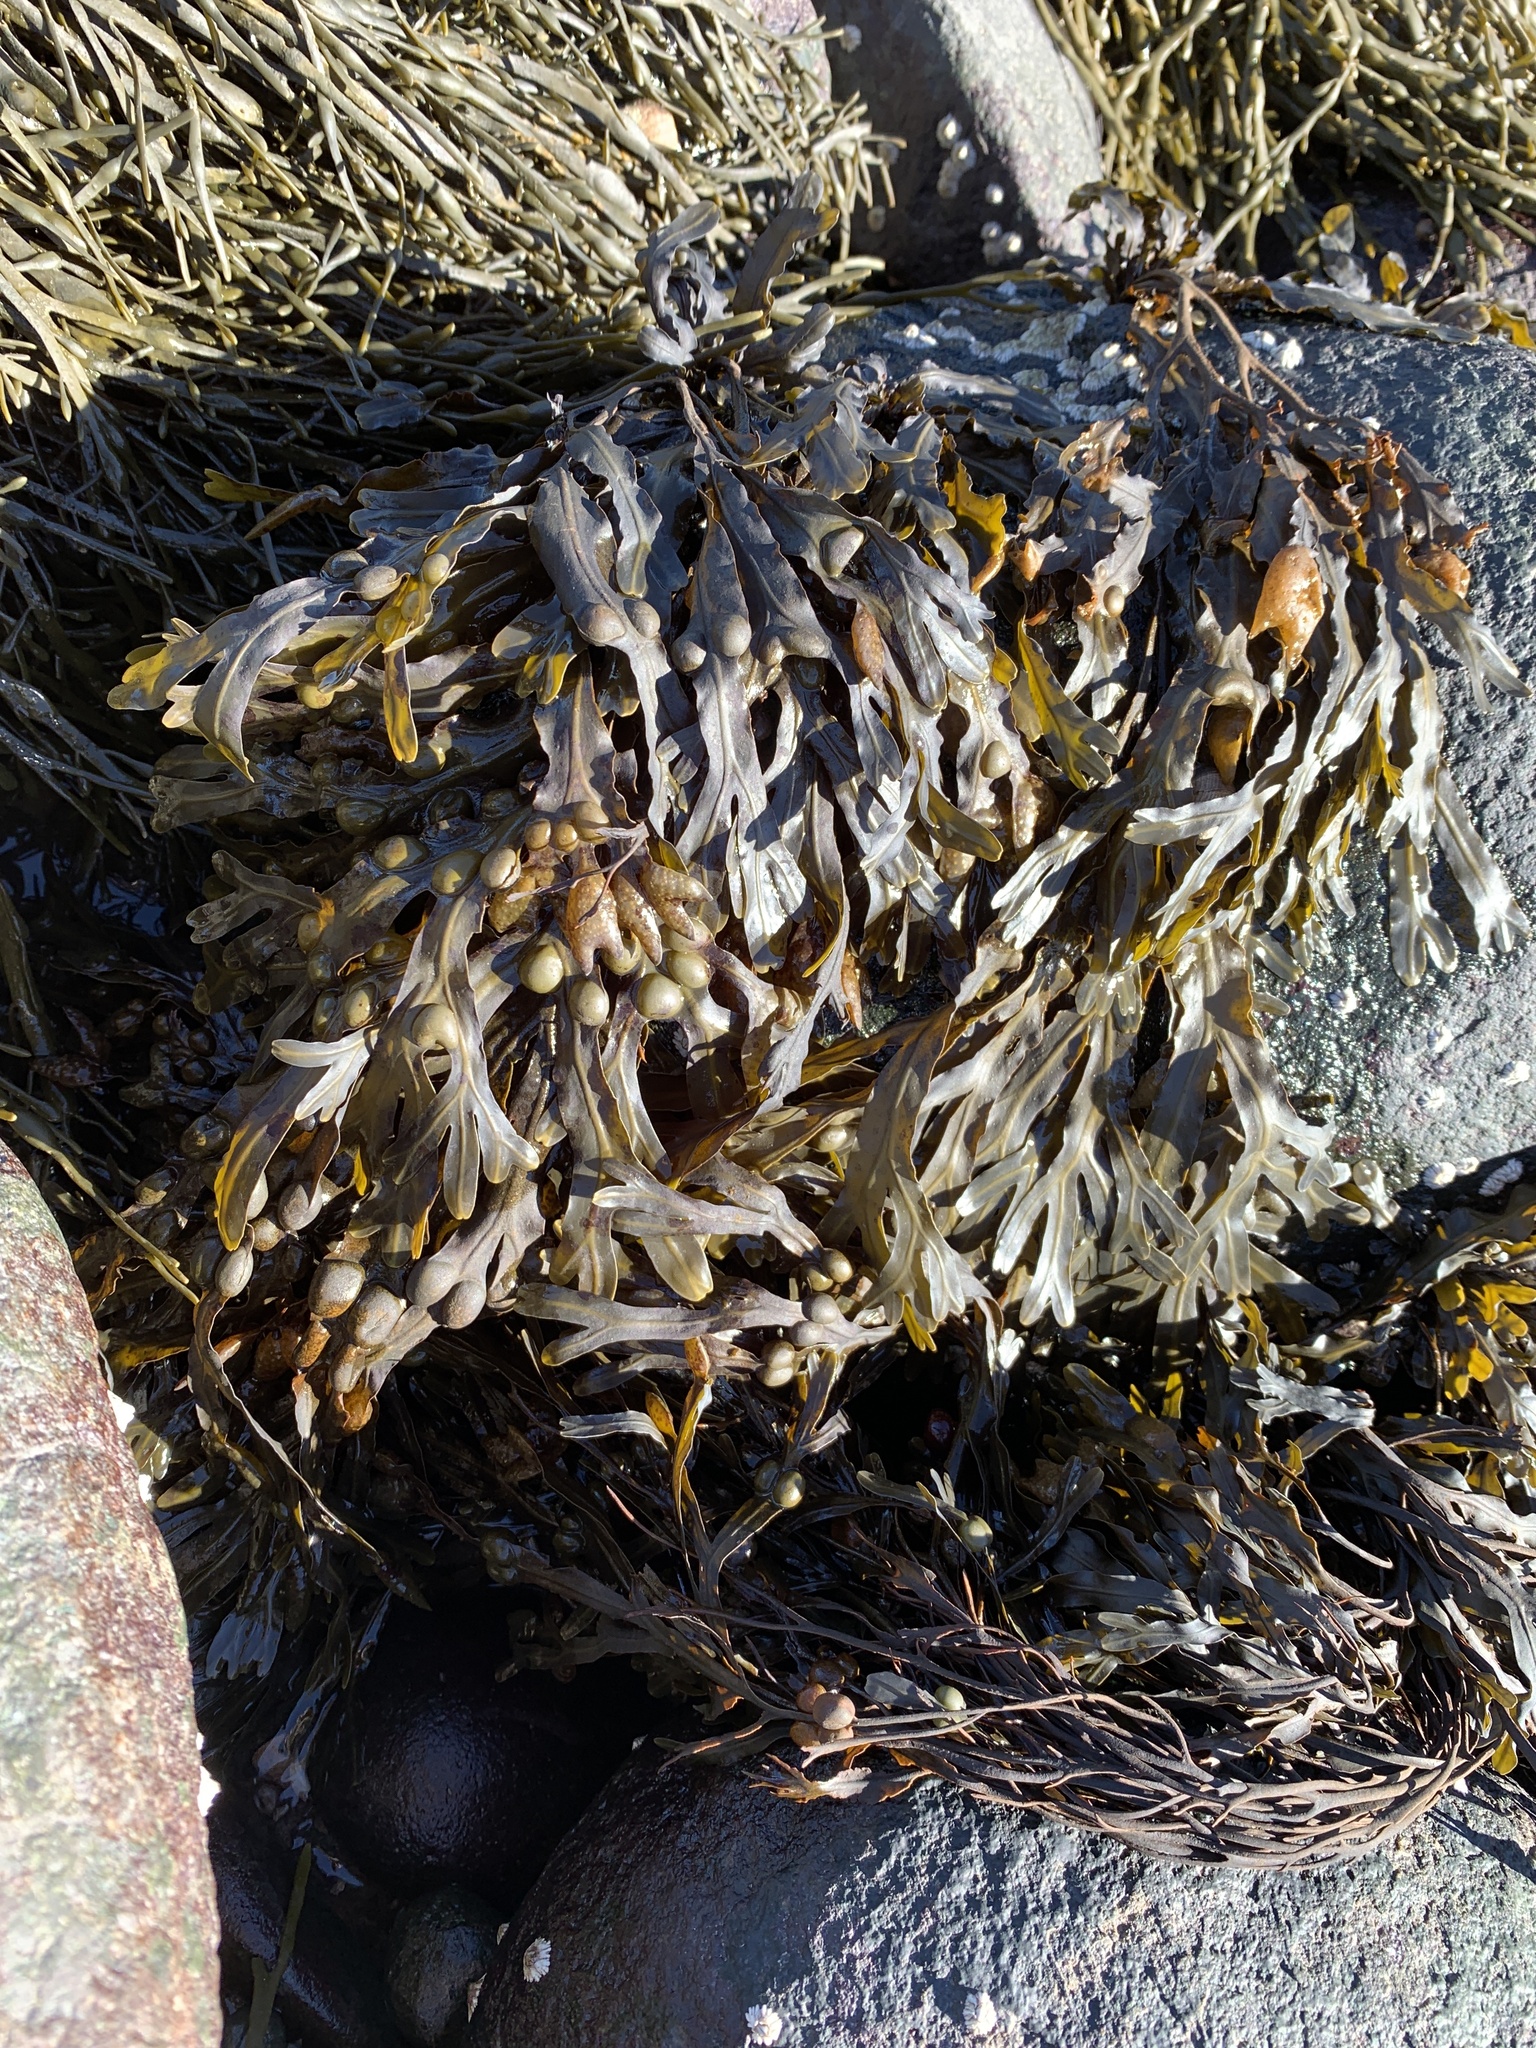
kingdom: Chromista
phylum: Ochrophyta
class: Phaeophyceae
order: Fucales
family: Fucaceae
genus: Fucus
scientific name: Fucus vesiculosus
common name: Bladder wrack
